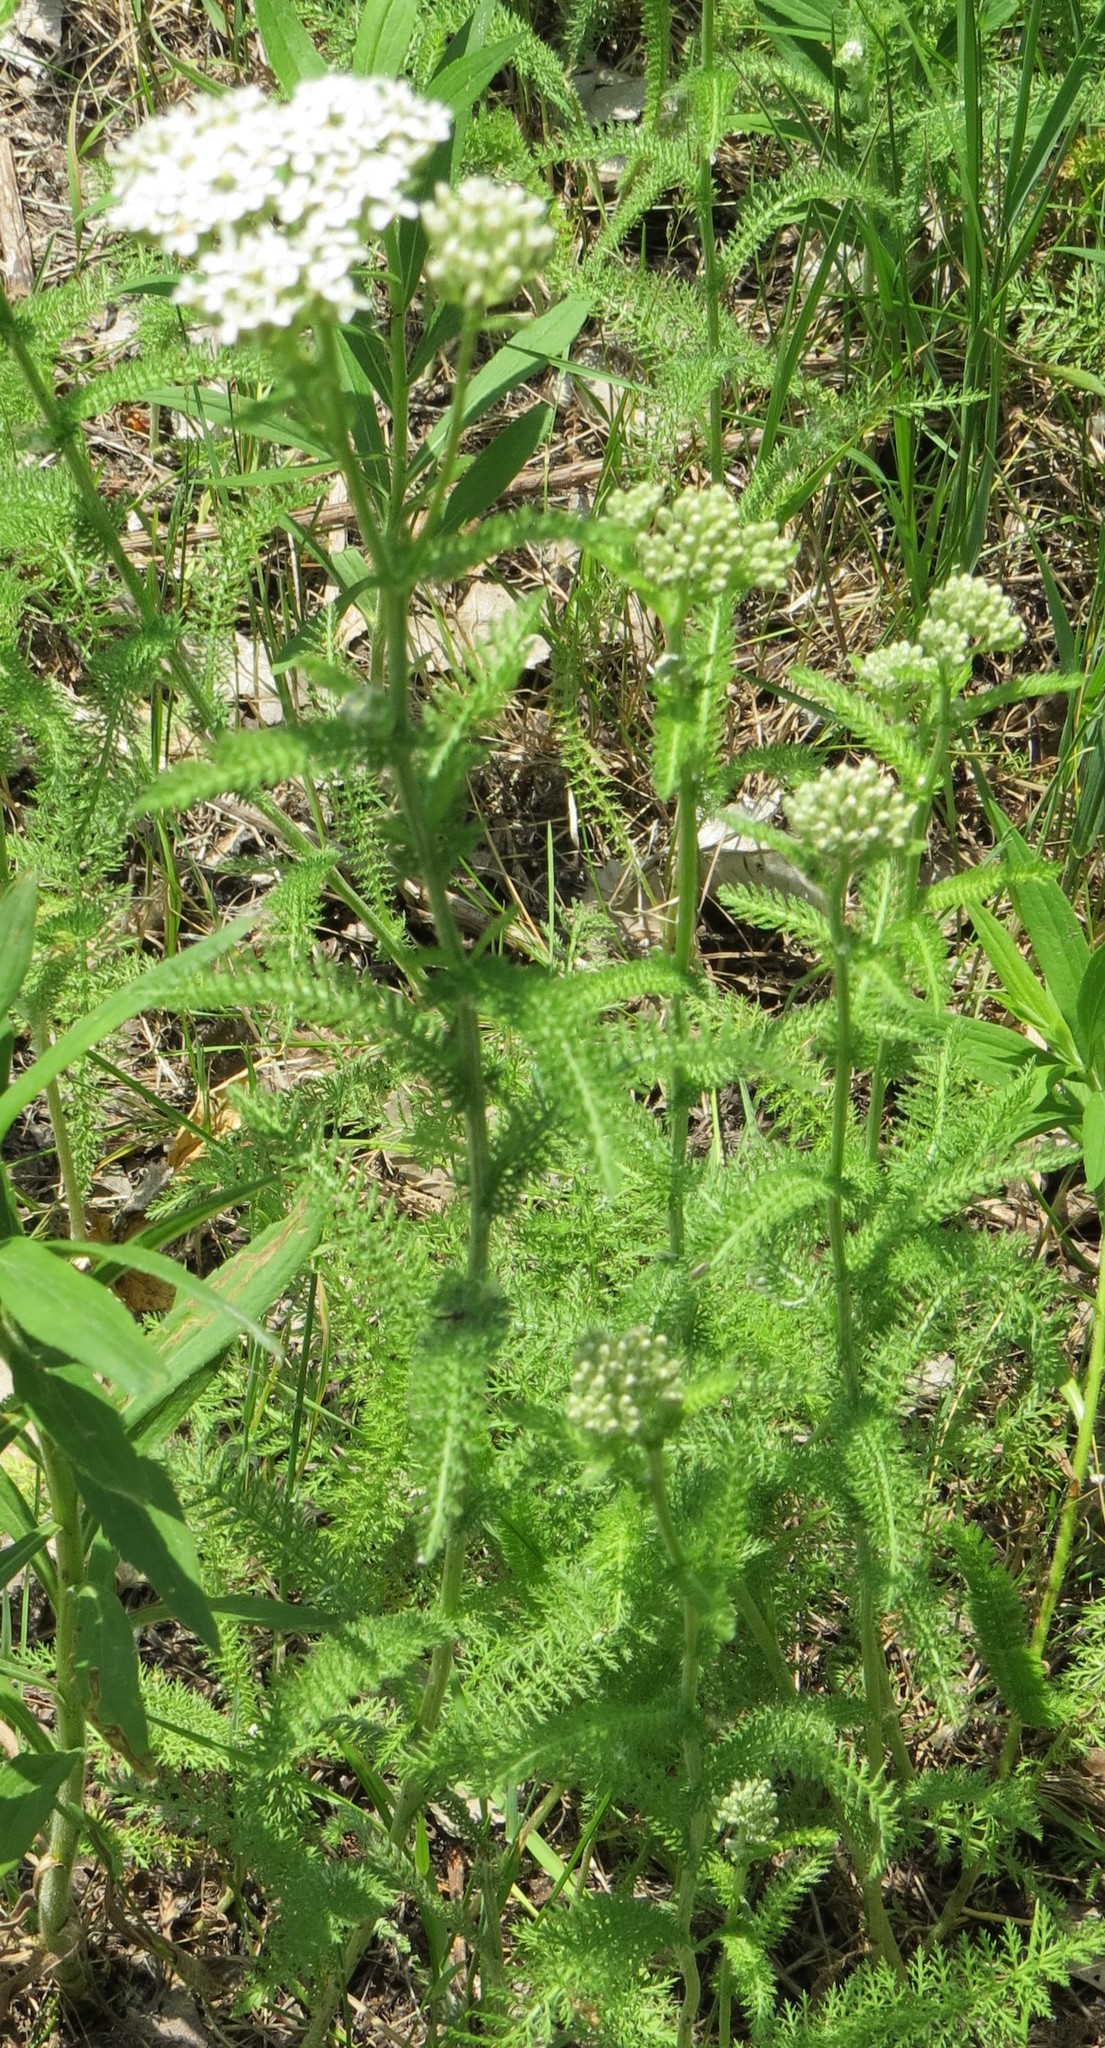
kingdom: Plantae
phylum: Tracheophyta
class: Magnoliopsida
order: Asterales
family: Asteraceae
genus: Achillea
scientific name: Achillea millefolium
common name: Yarrow
